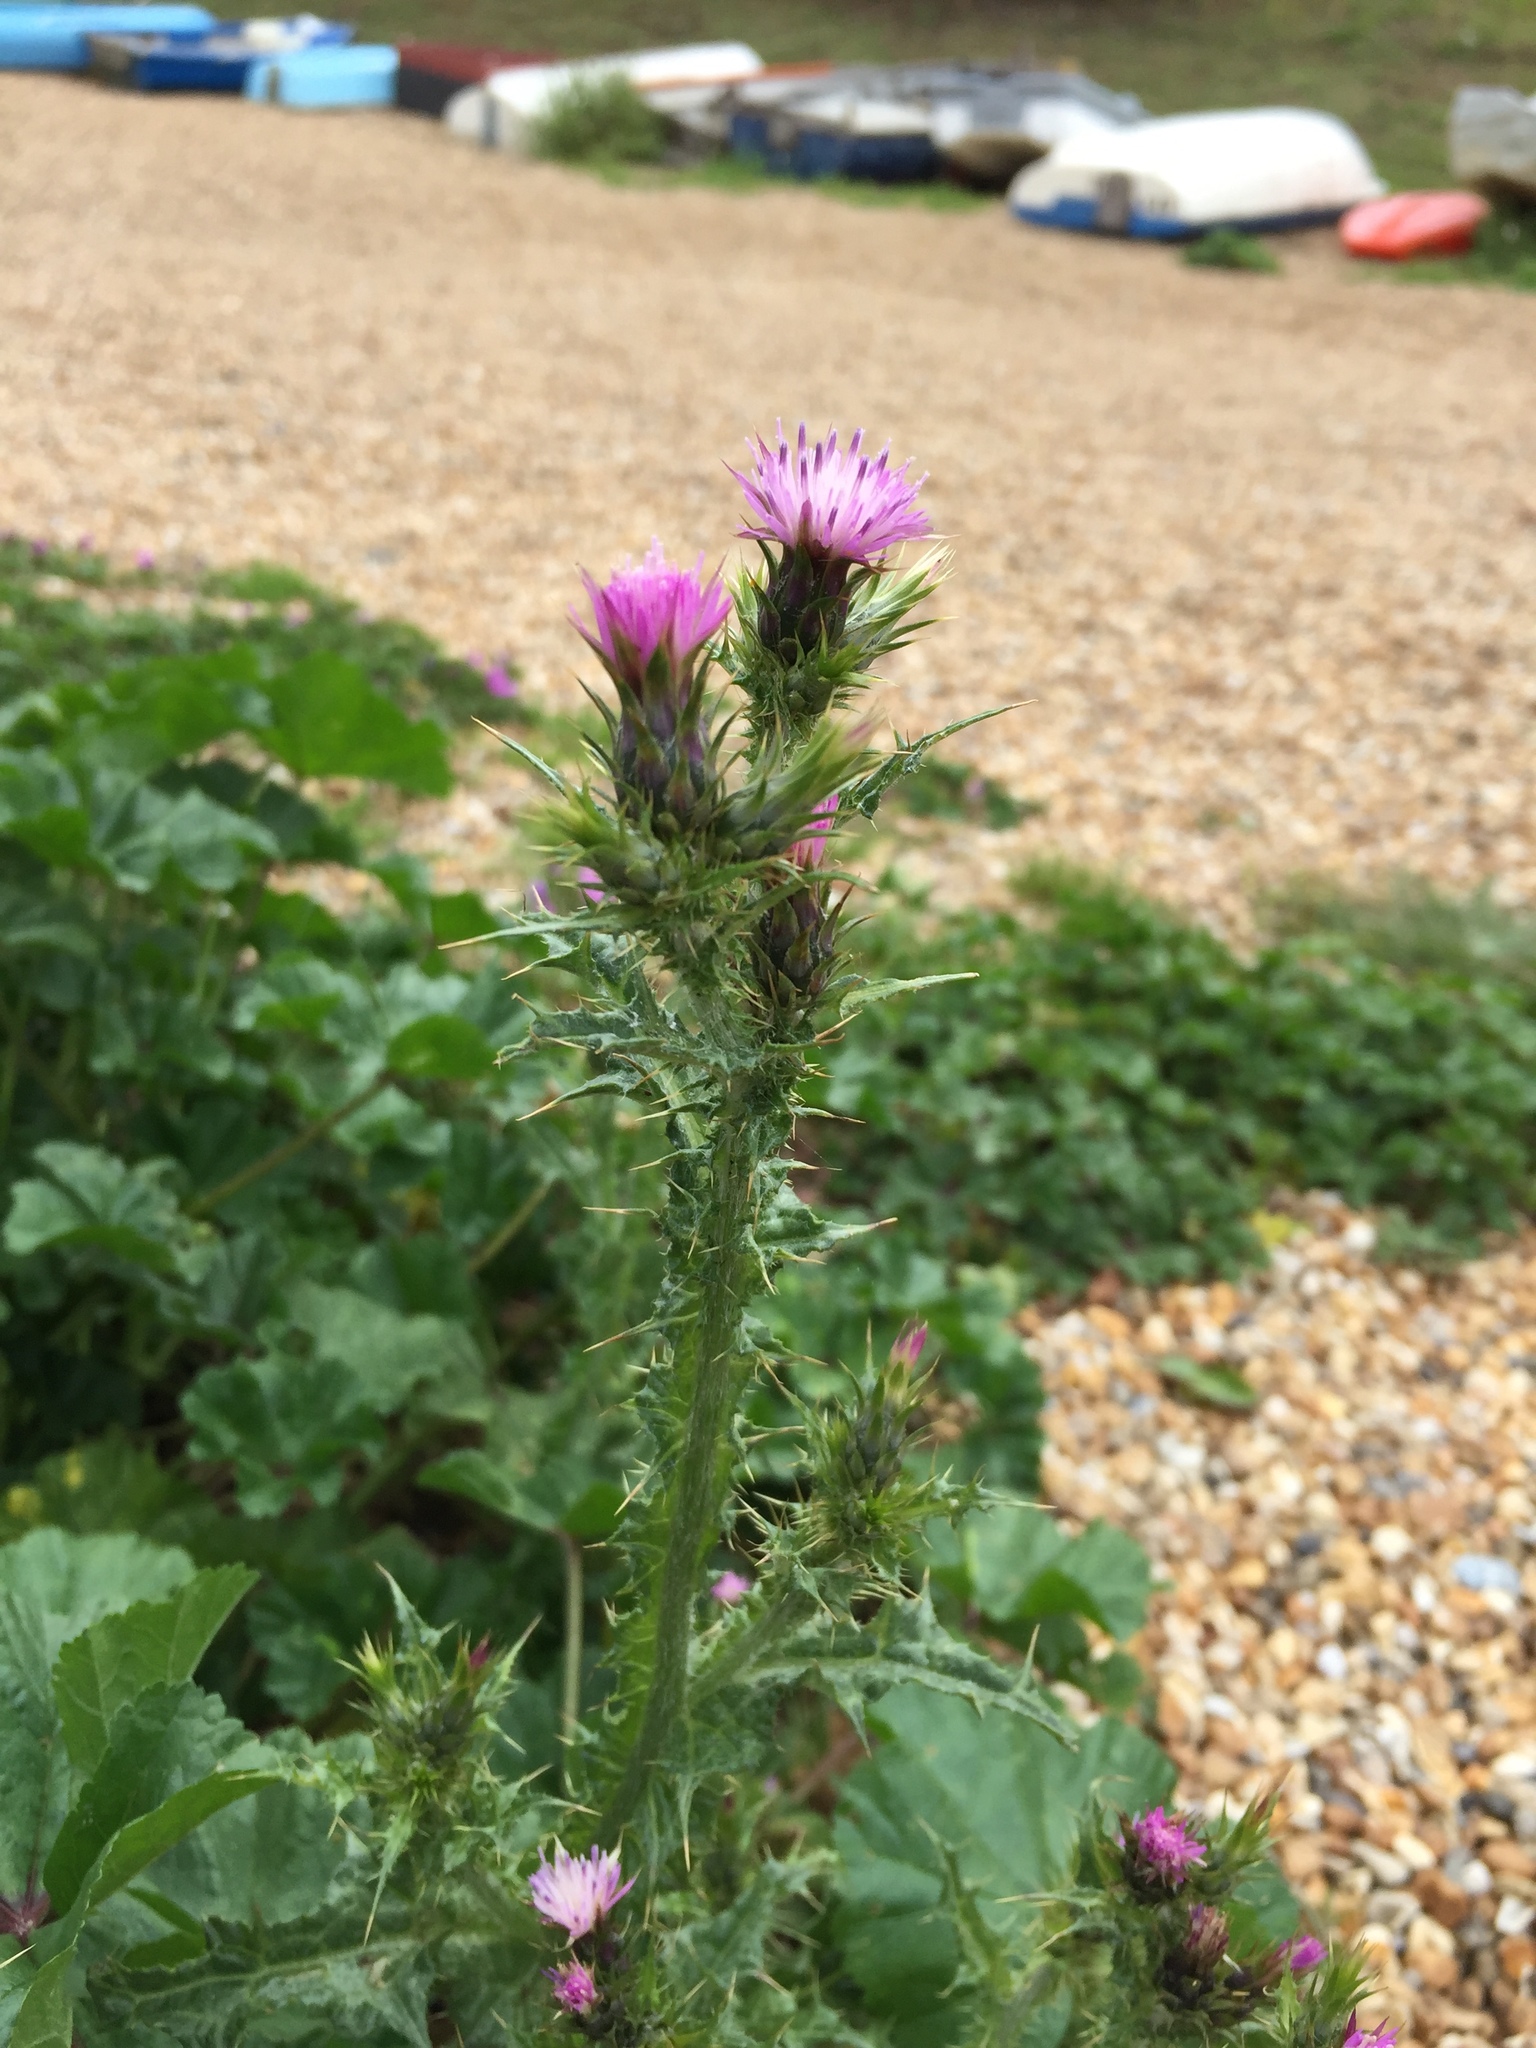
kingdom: Plantae
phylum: Tracheophyta
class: Magnoliopsida
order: Asterales
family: Asteraceae
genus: Carduus
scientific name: Carduus tenuiflorus
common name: Slender thistle
